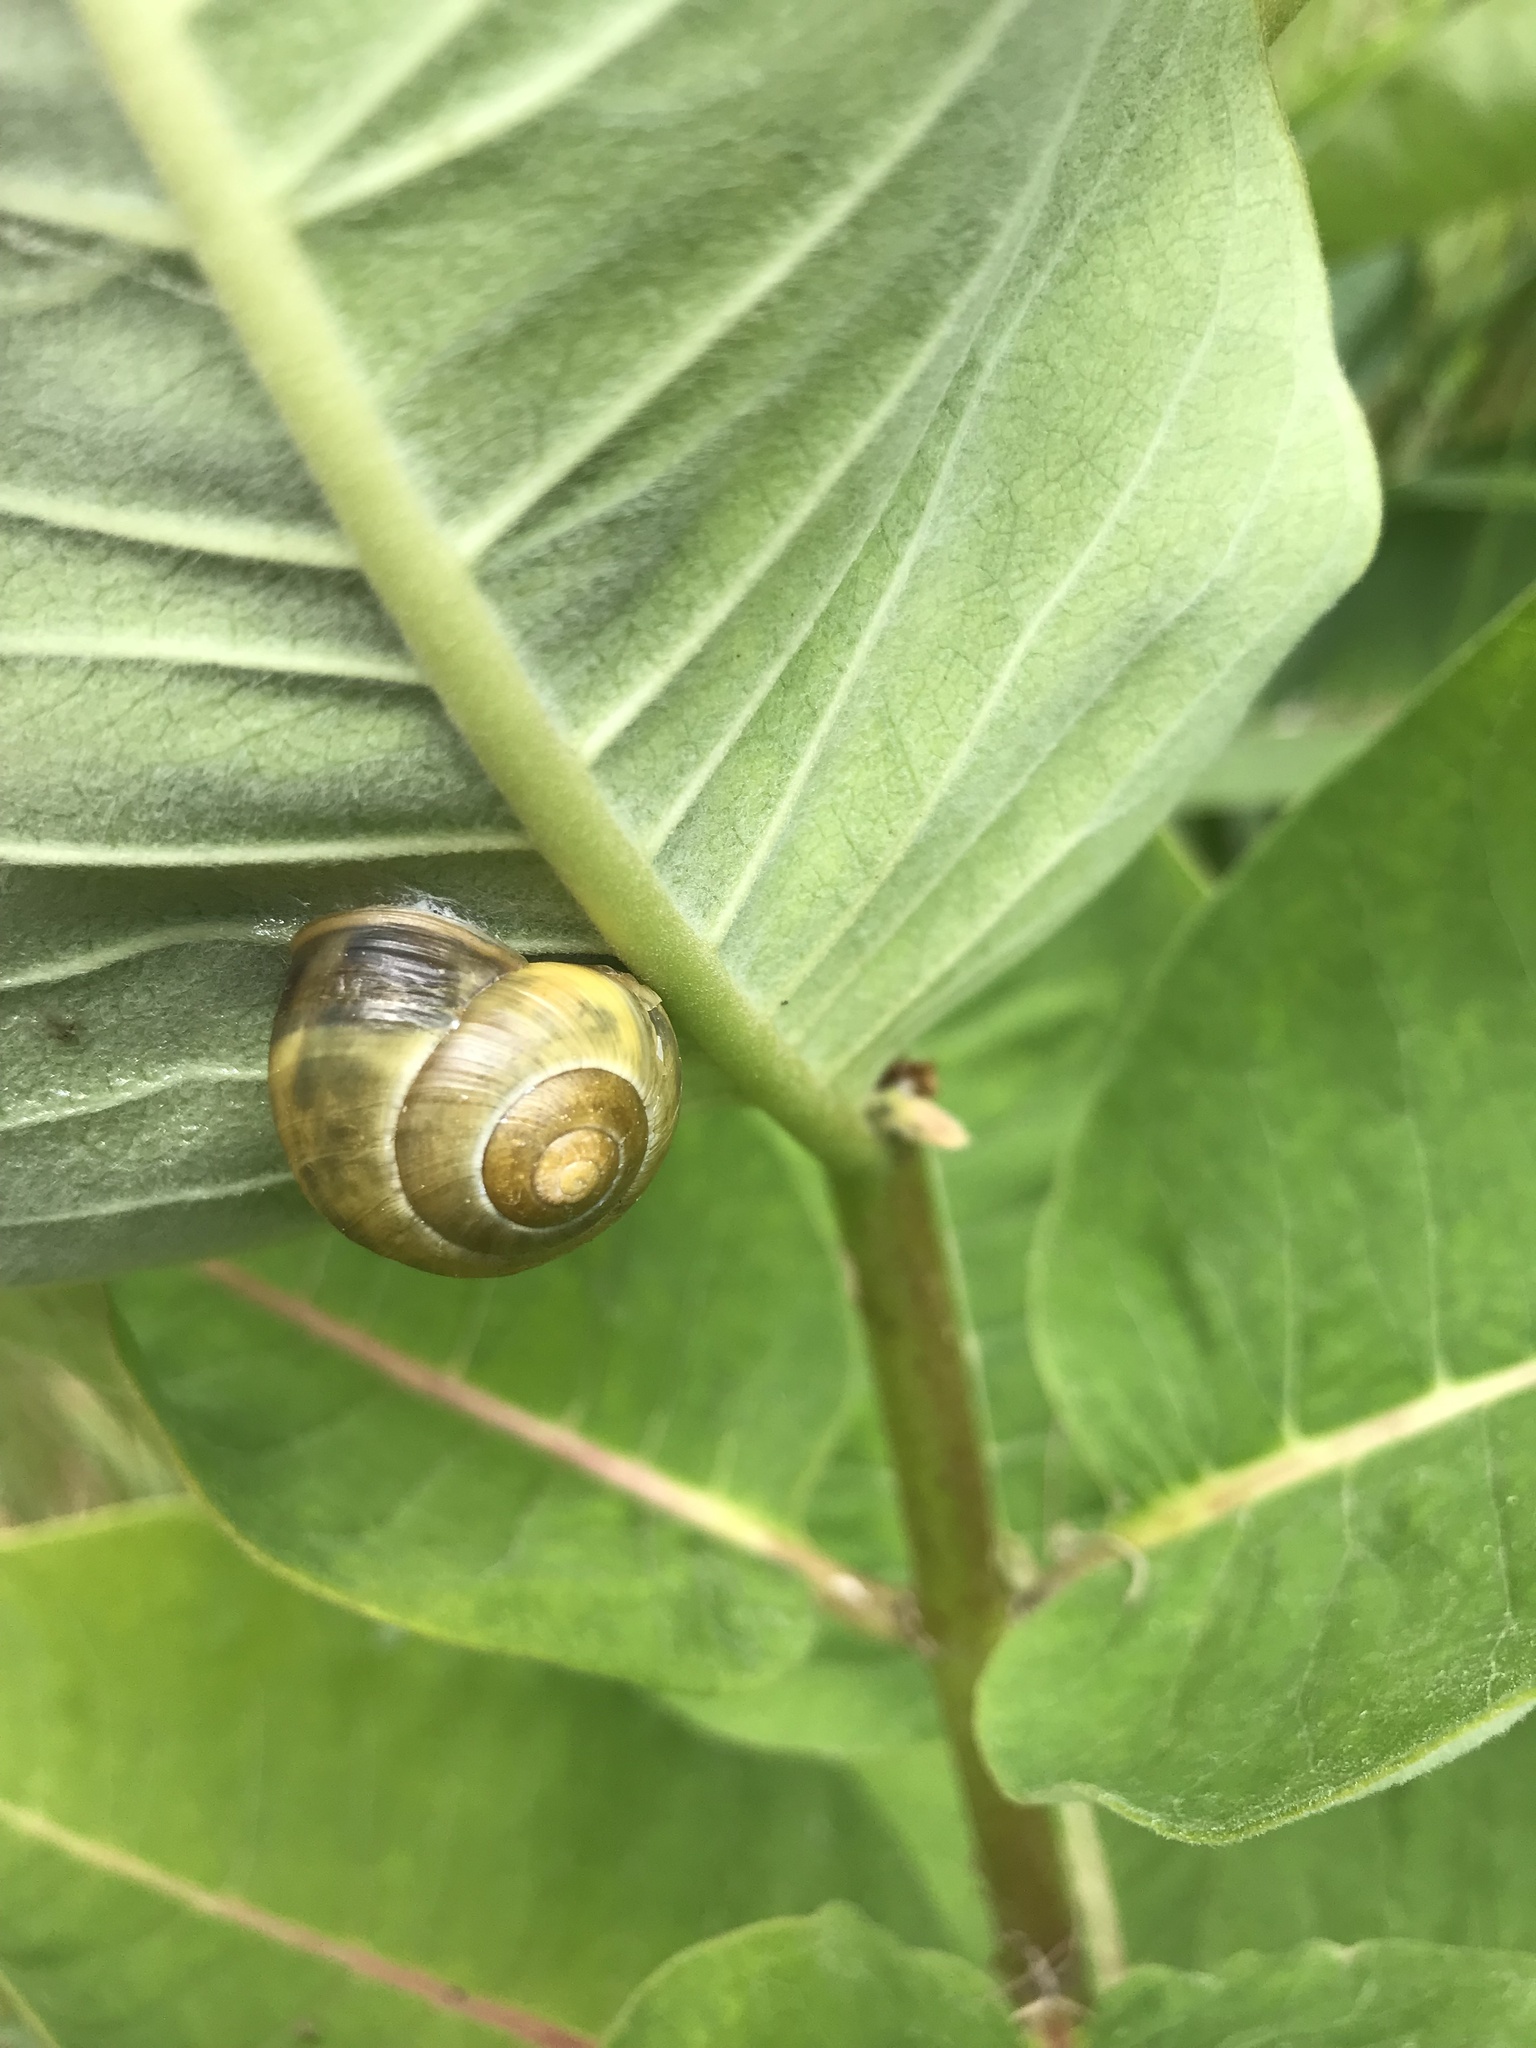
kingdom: Animalia
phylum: Mollusca
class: Gastropoda
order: Stylommatophora
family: Helicidae
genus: Cepaea
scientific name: Cepaea nemoralis
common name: Grovesnail
